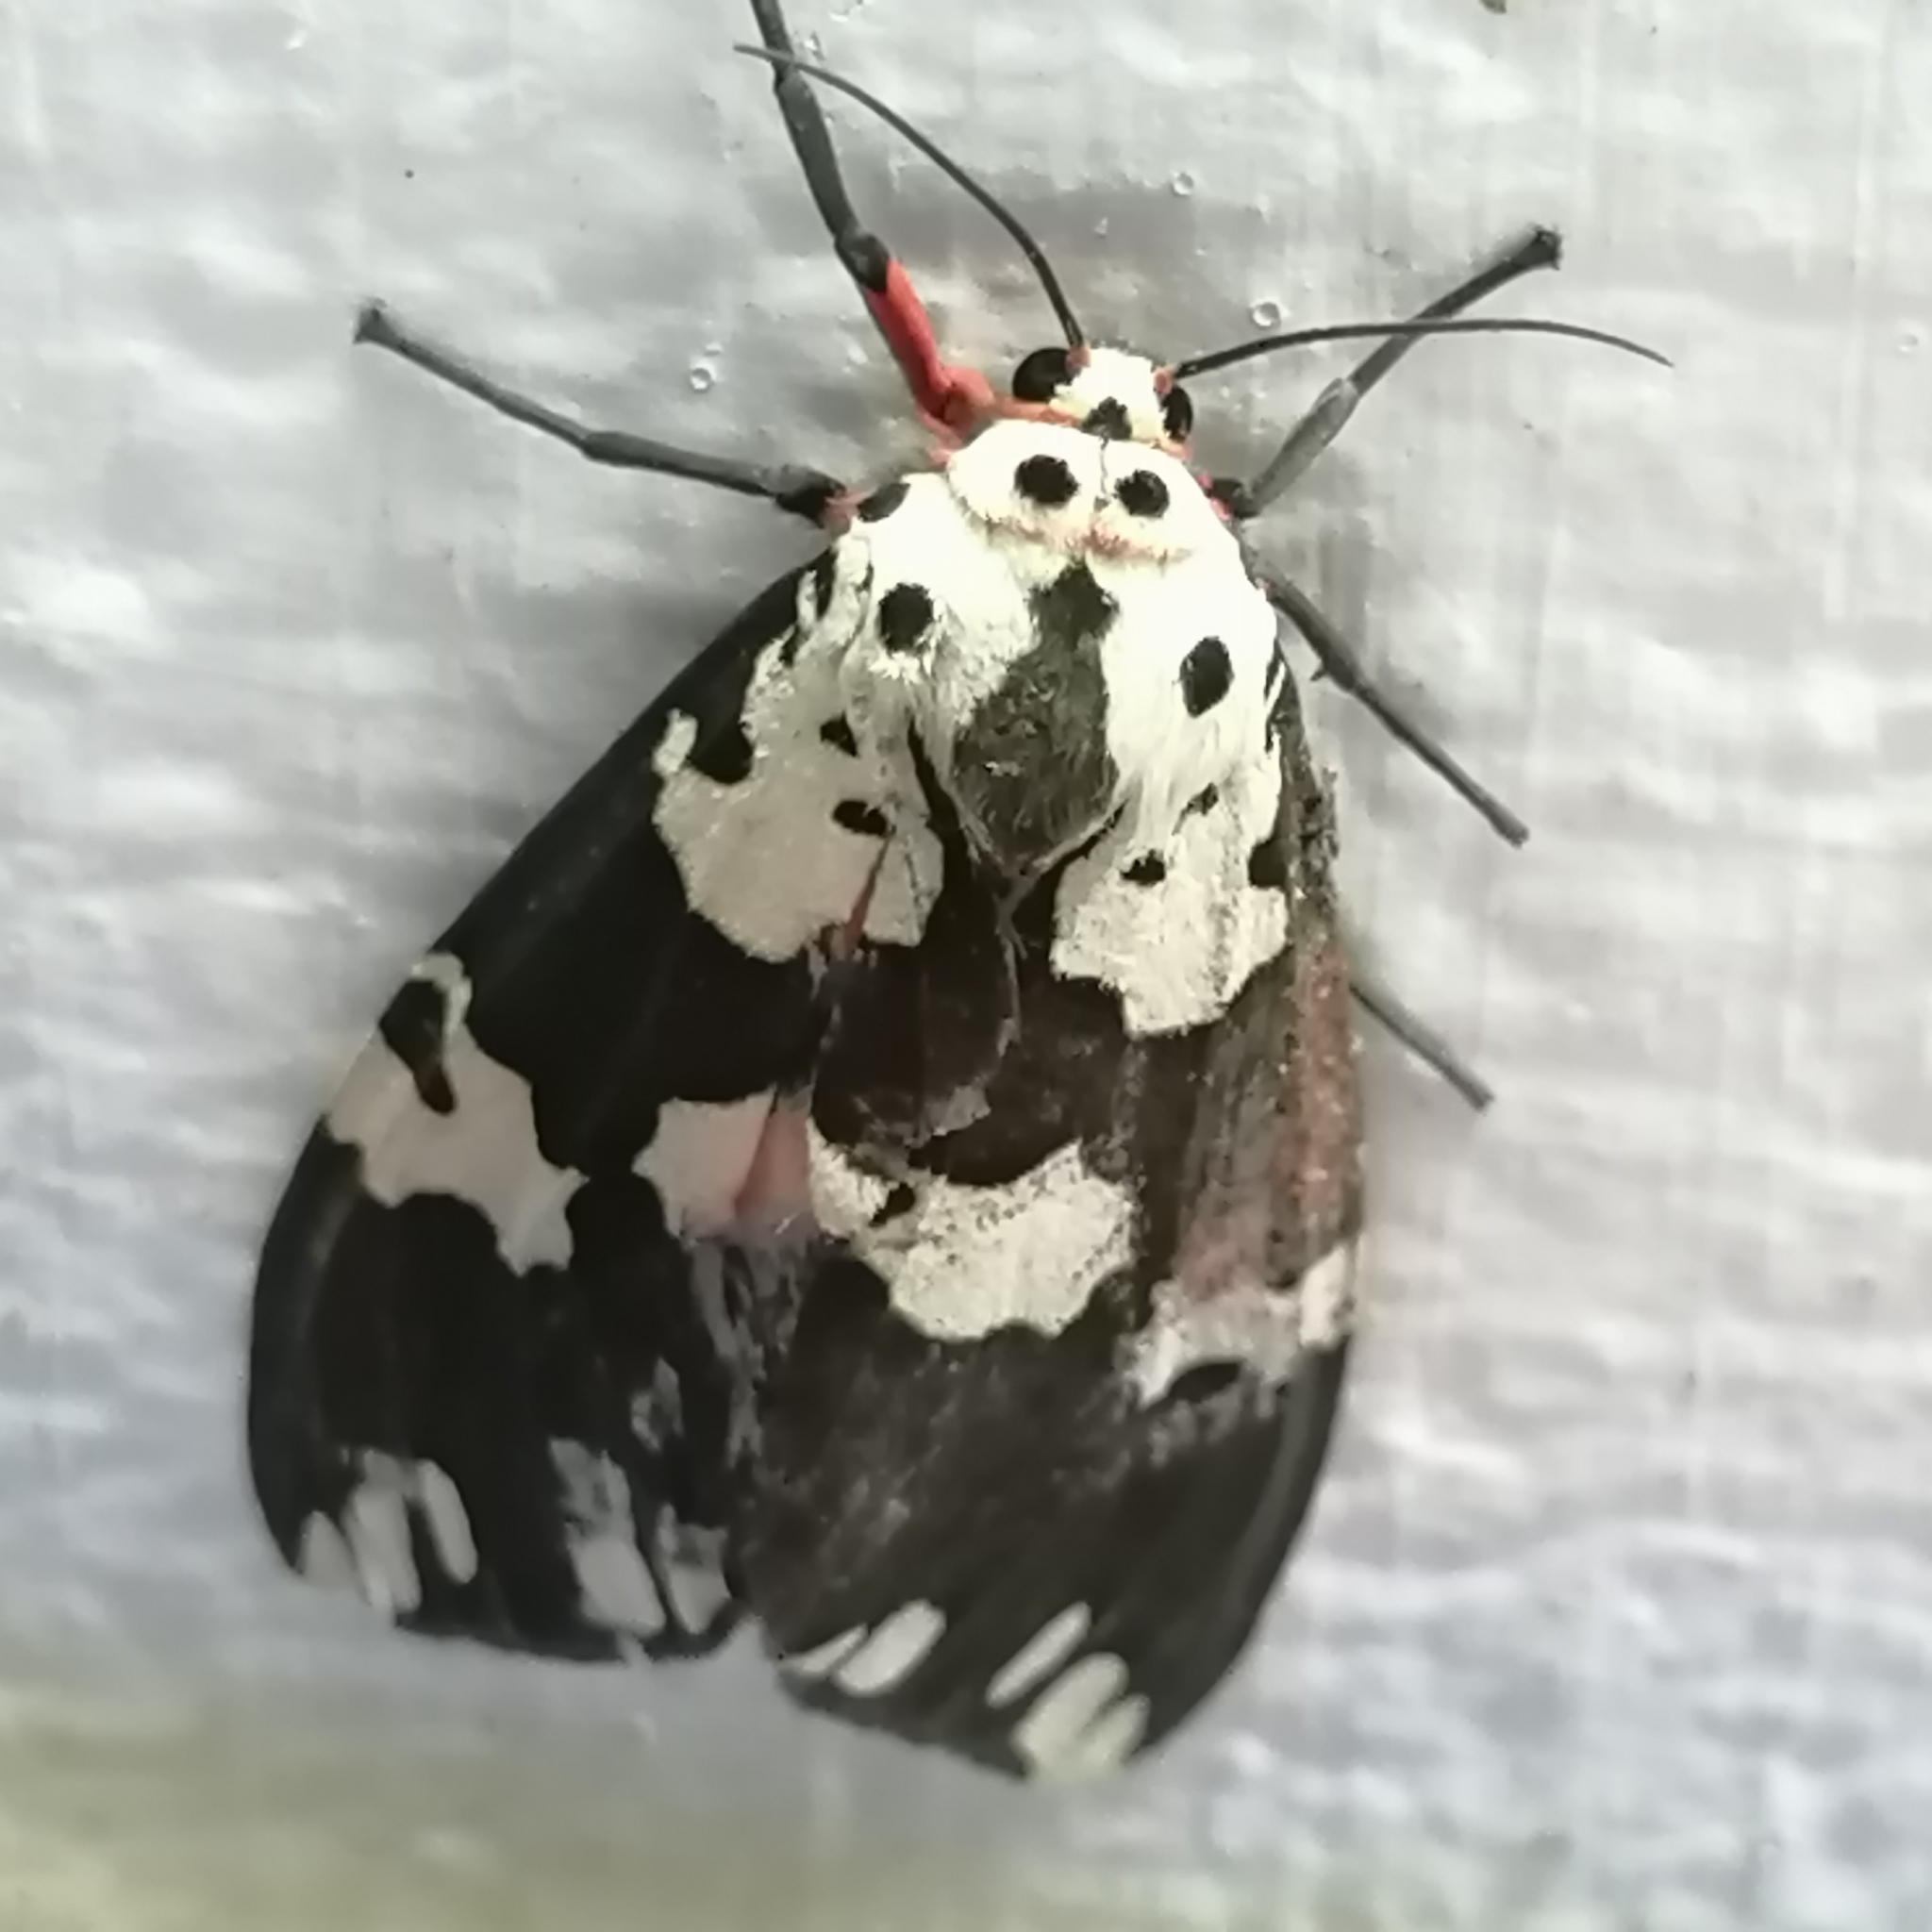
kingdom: Animalia
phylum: Arthropoda
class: Insecta
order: Lepidoptera
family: Erebidae
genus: Pericallia
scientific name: Pericallia
